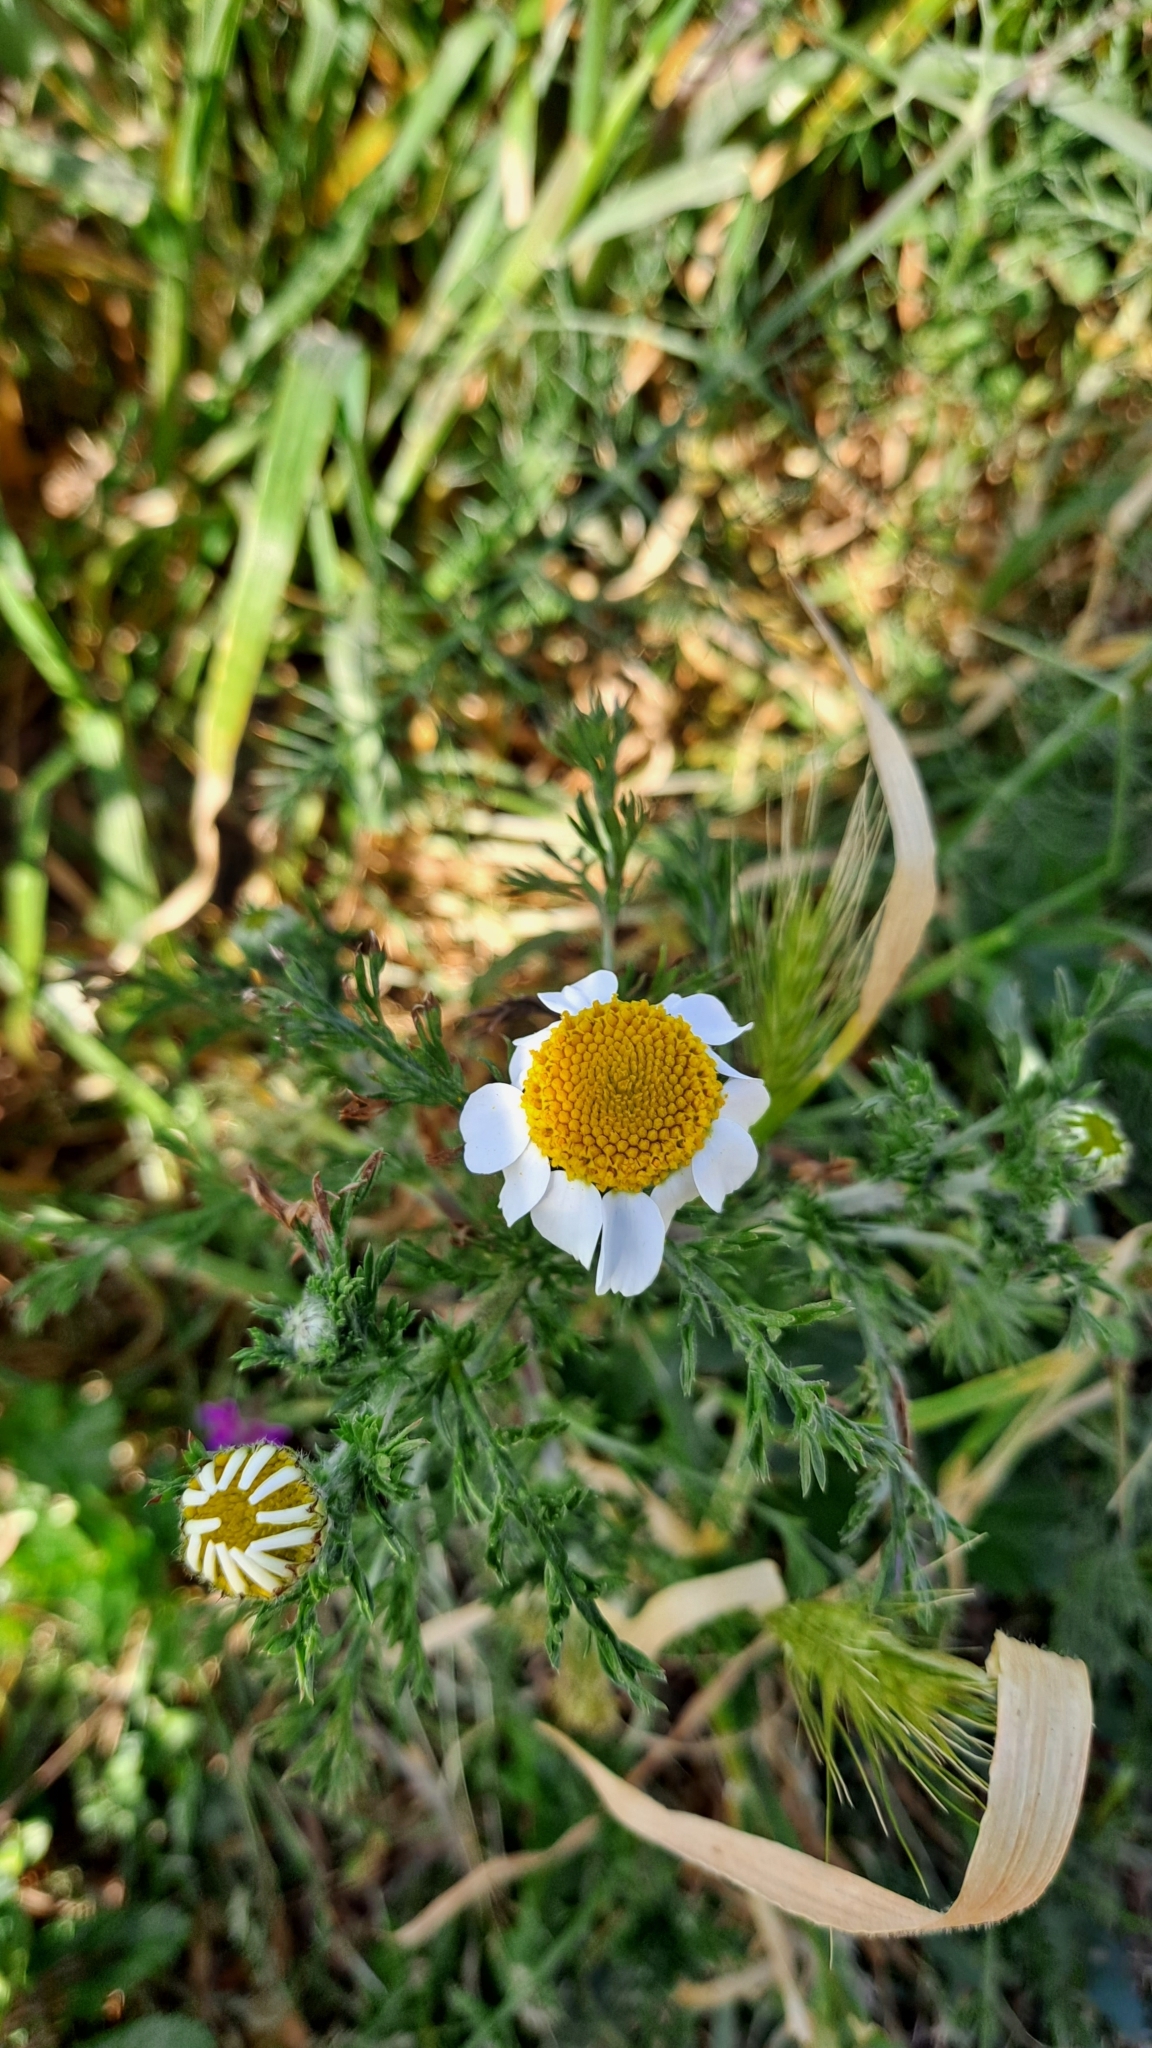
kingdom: Plantae
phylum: Tracheophyta
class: Magnoliopsida
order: Asterales
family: Asteraceae
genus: Matricaria
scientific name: Matricaria chamomilla
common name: Scented mayweed
